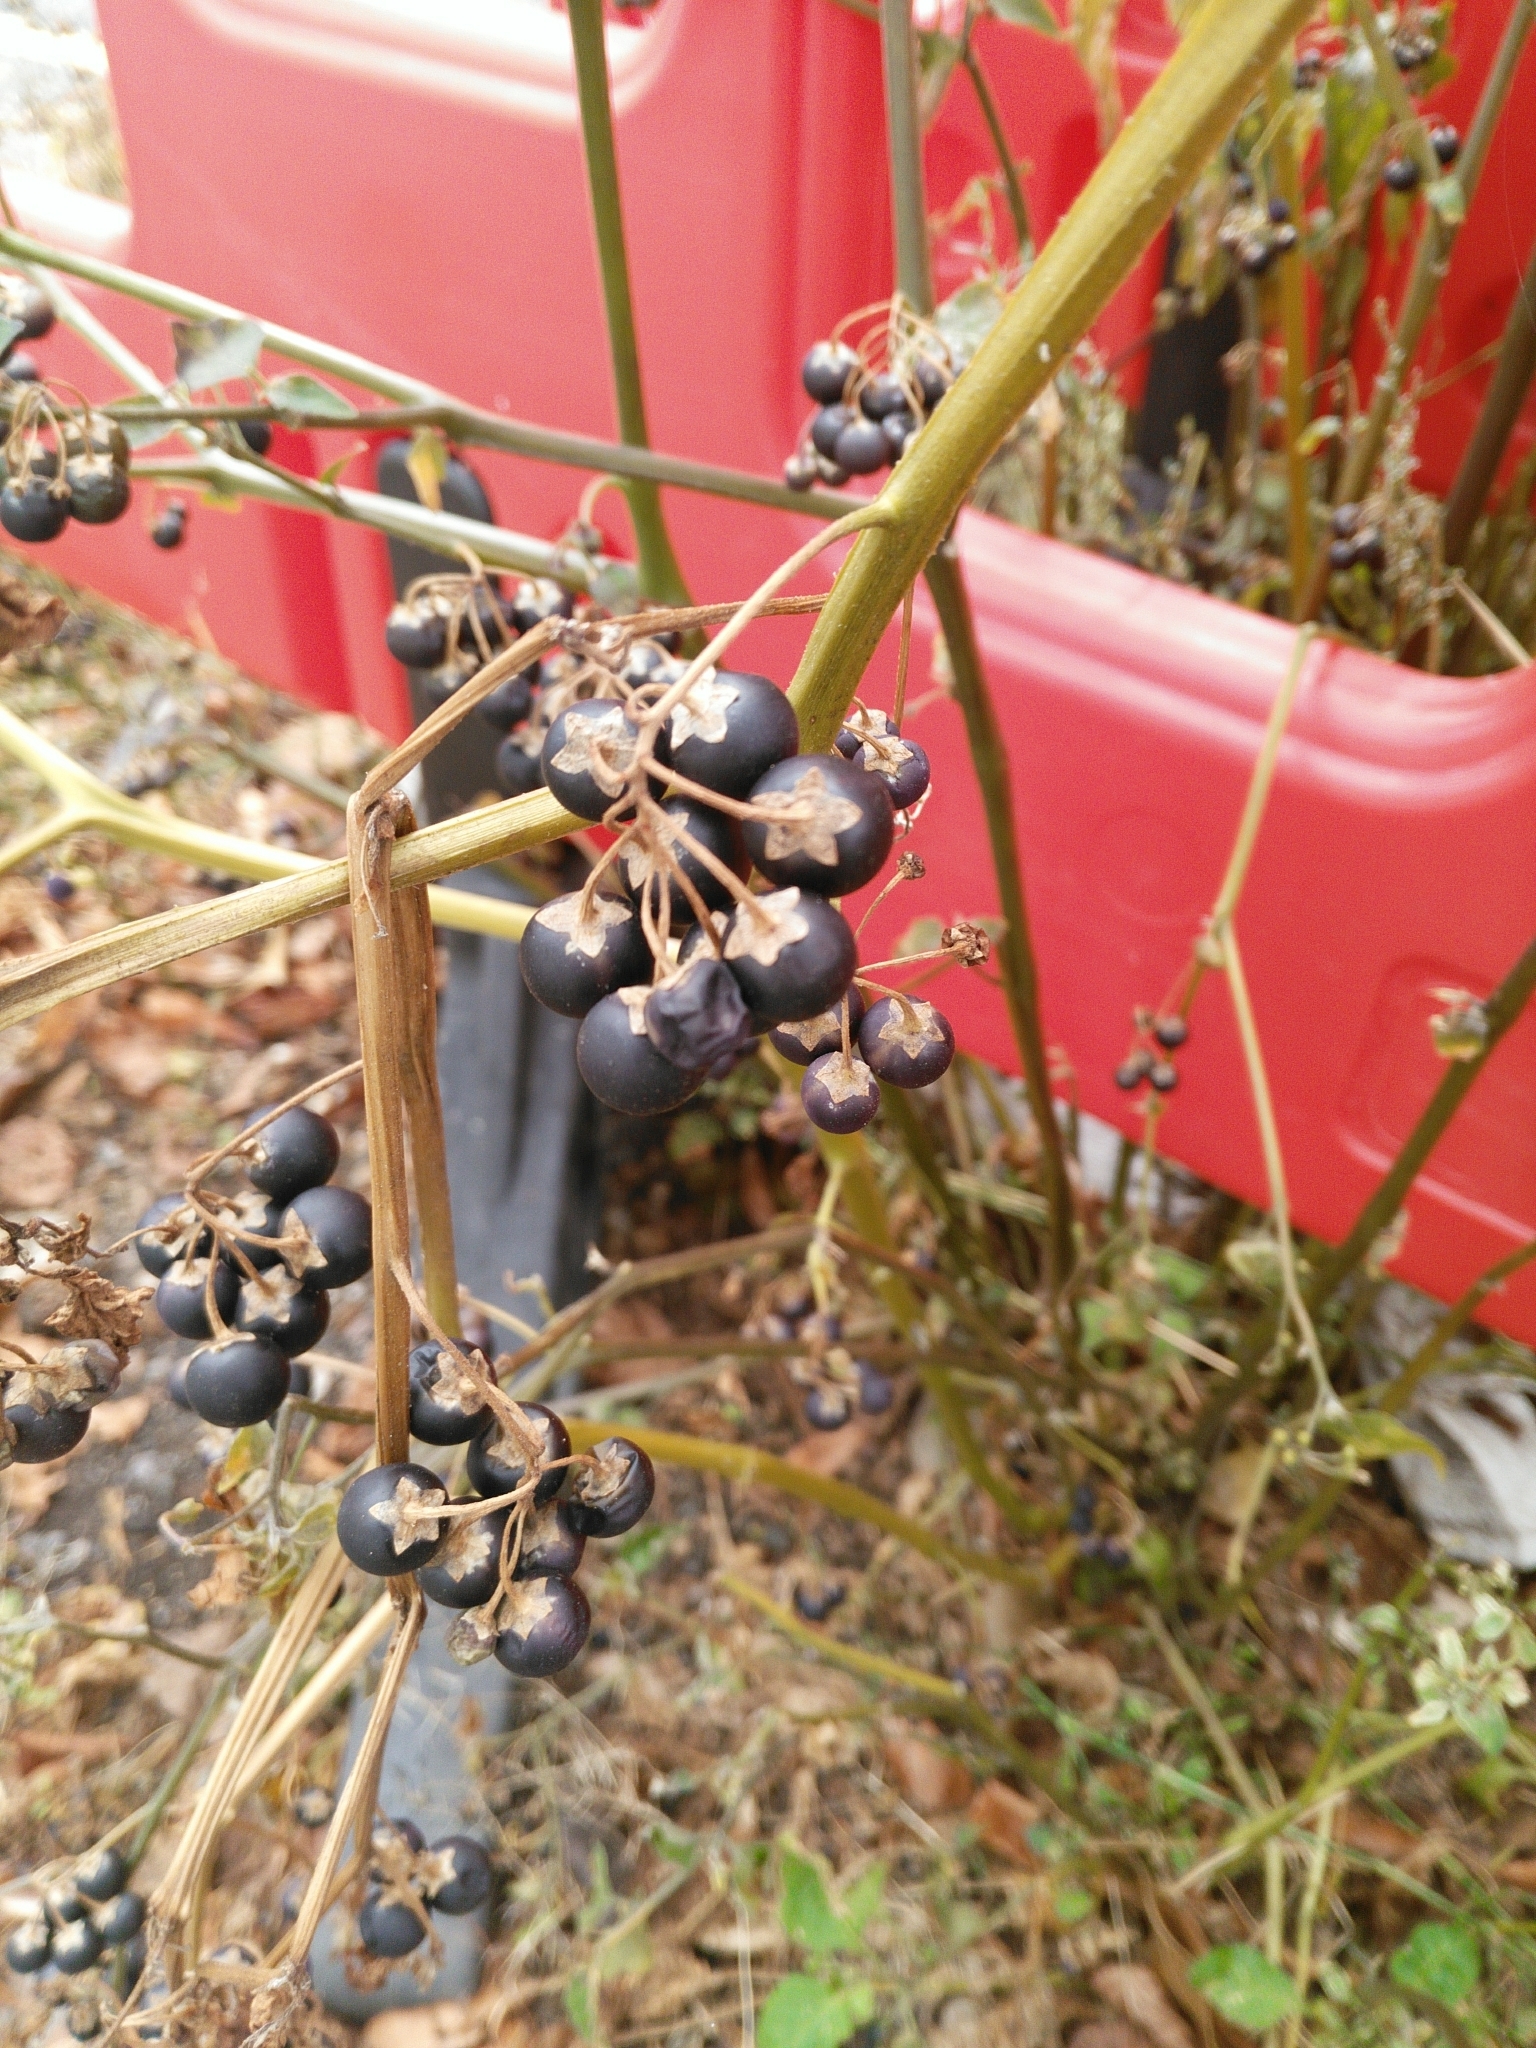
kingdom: Plantae
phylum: Tracheophyta
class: Magnoliopsida
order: Solanales
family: Solanaceae
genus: Solanum
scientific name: Solanum nigrum
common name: Black nightshade
